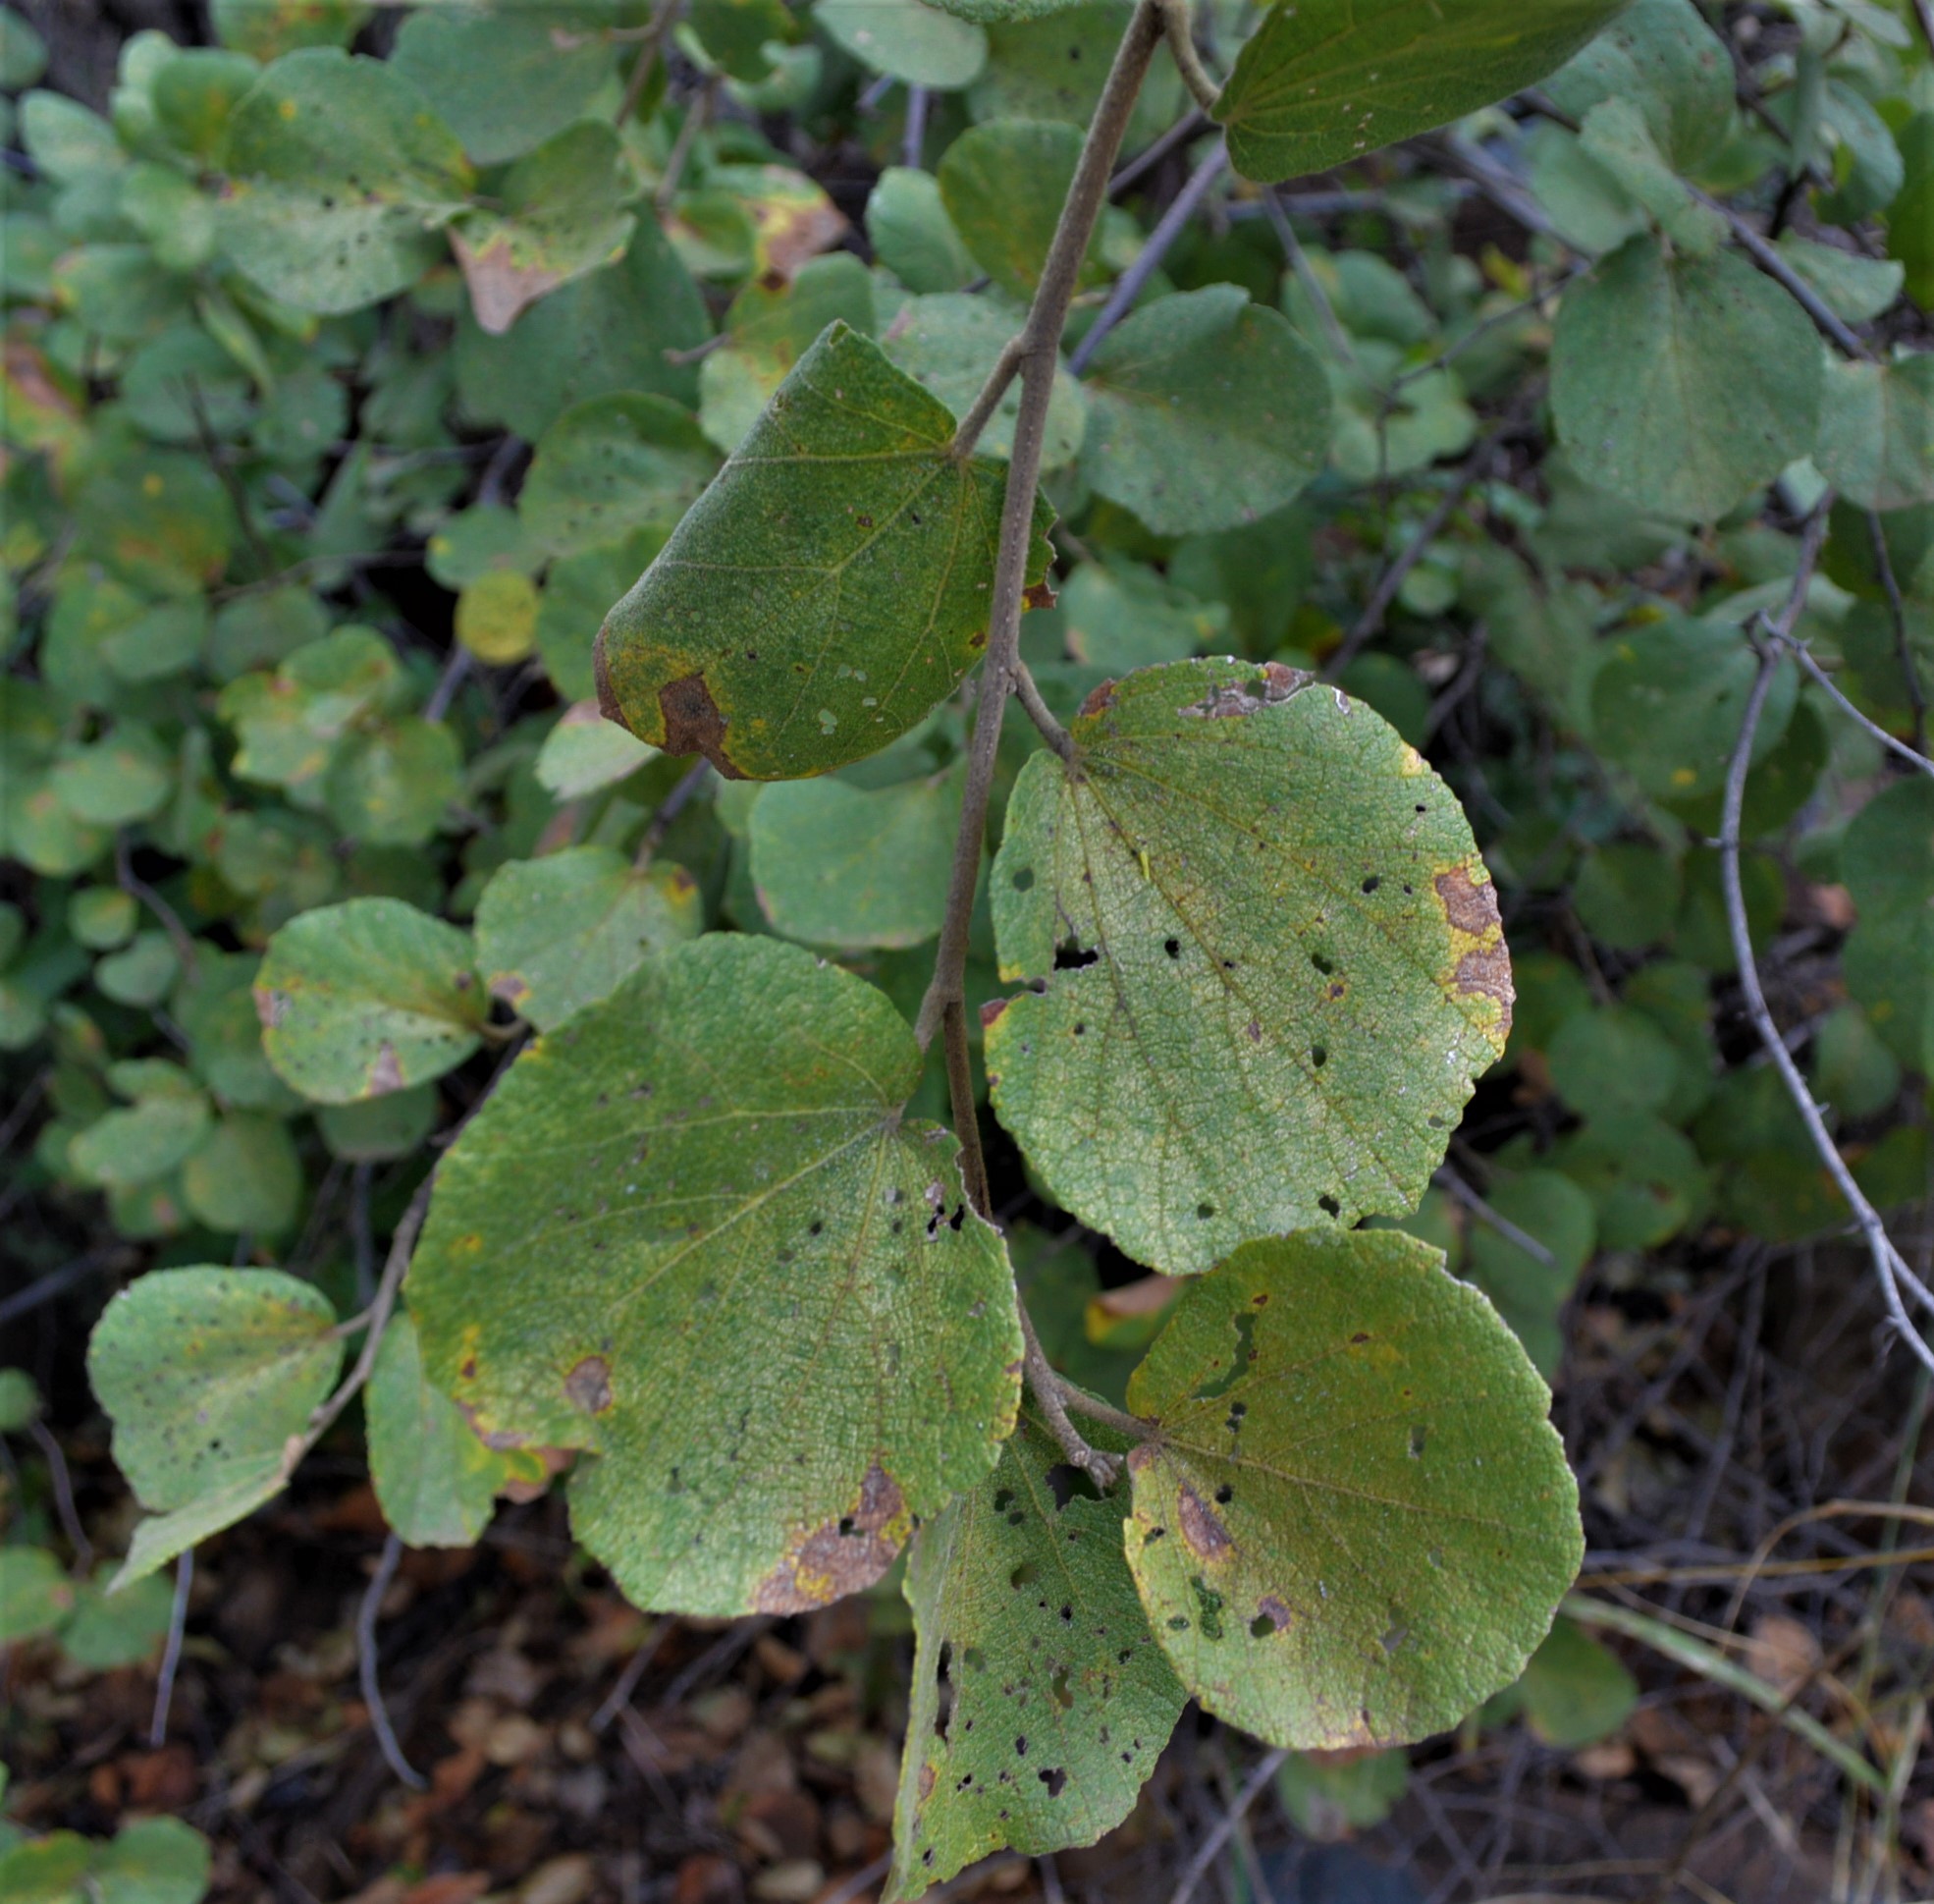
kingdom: Plantae
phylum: Tracheophyta
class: Magnoliopsida
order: Malvales
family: Malvaceae
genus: Dombeya
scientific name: Dombeya rotundifolia
